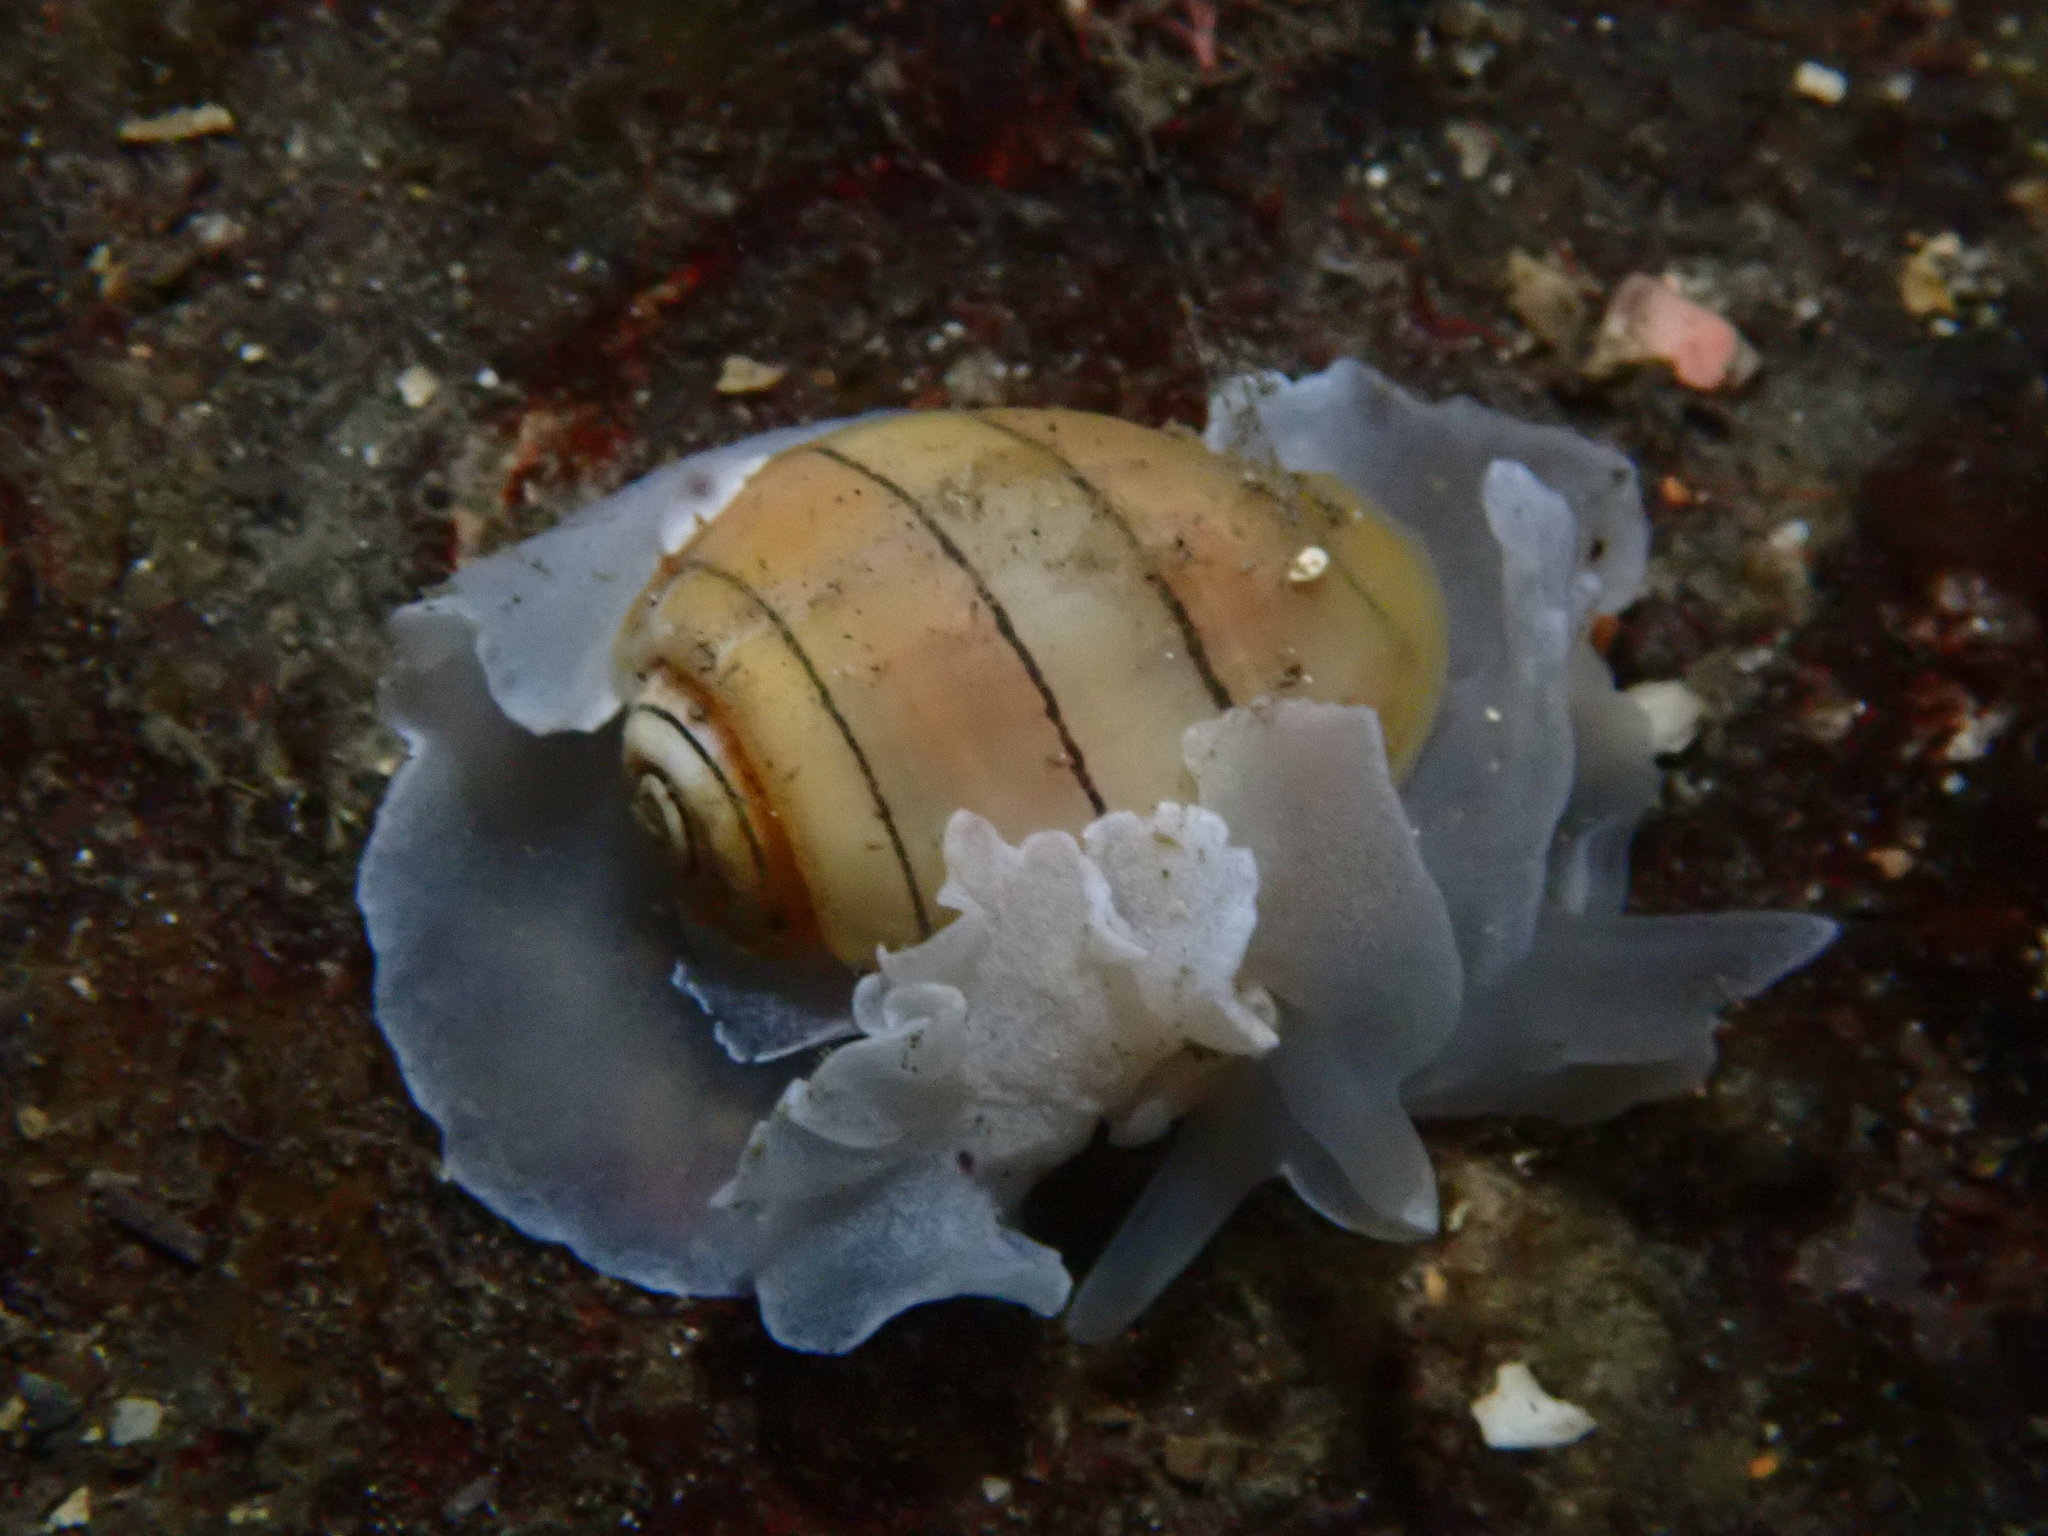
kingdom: Animalia
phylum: Mollusca
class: Gastropoda
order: Cephalaspidea
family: Aplustridae
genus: Aplustrum
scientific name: Aplustrum amplustre
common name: Royal paperbubble
